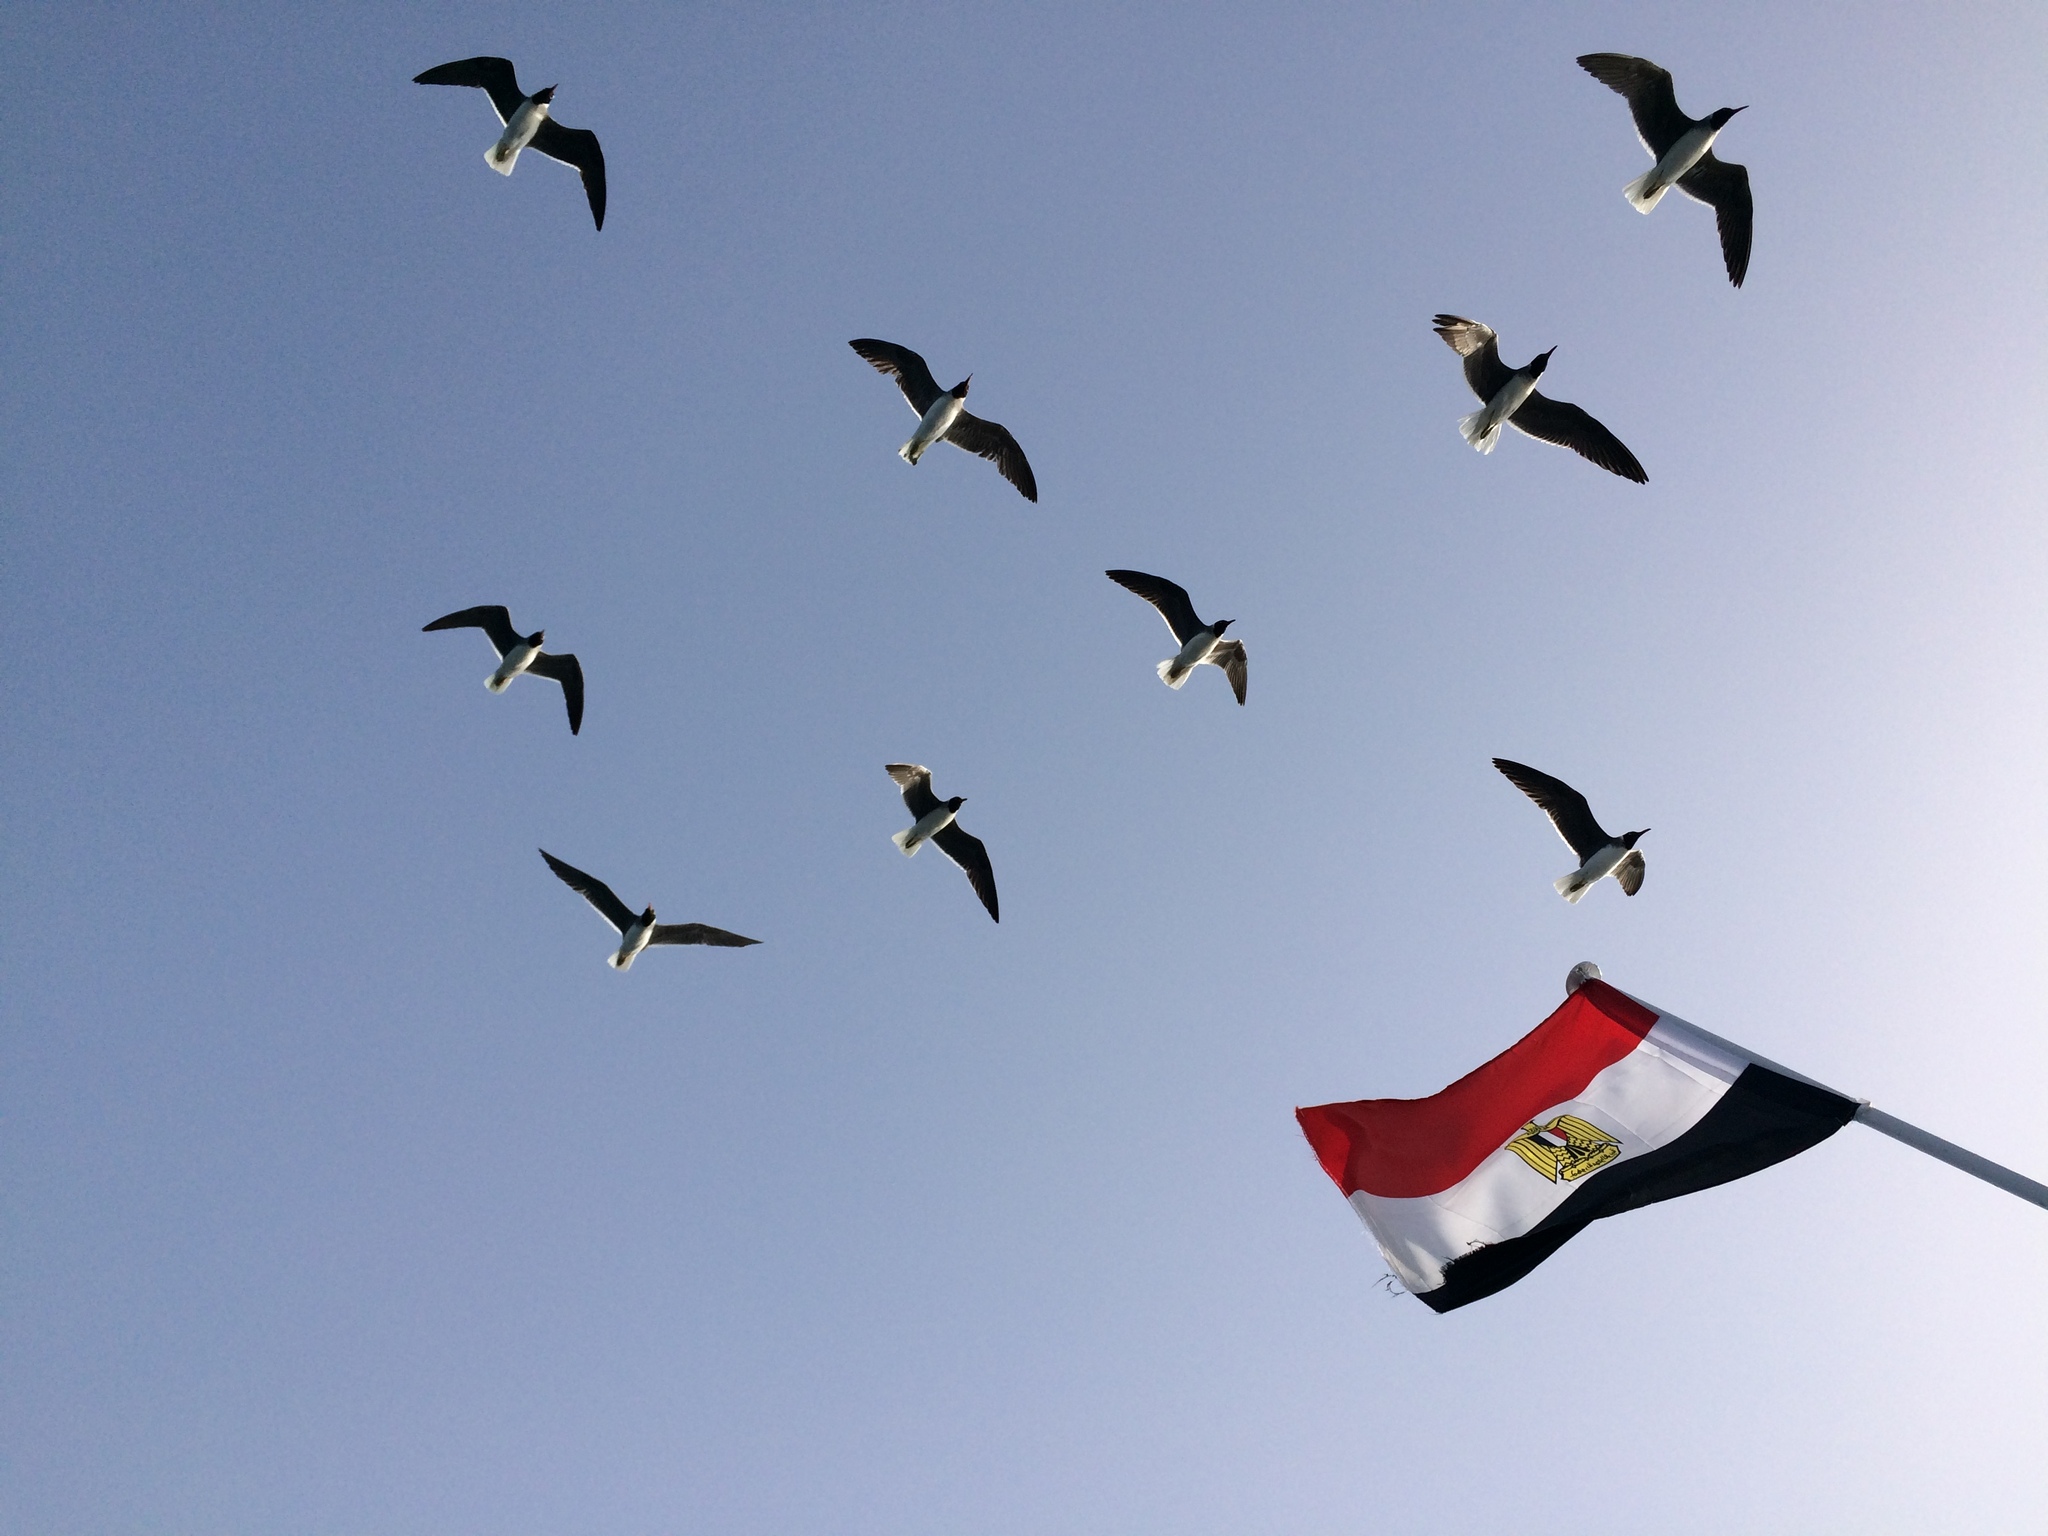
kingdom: Animalia
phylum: Chordata
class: Aves
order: Charadriiformes
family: Laridae
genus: Ichthyaetus
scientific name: Ichthyaetus leucophthalmus
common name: White-eyed gull
